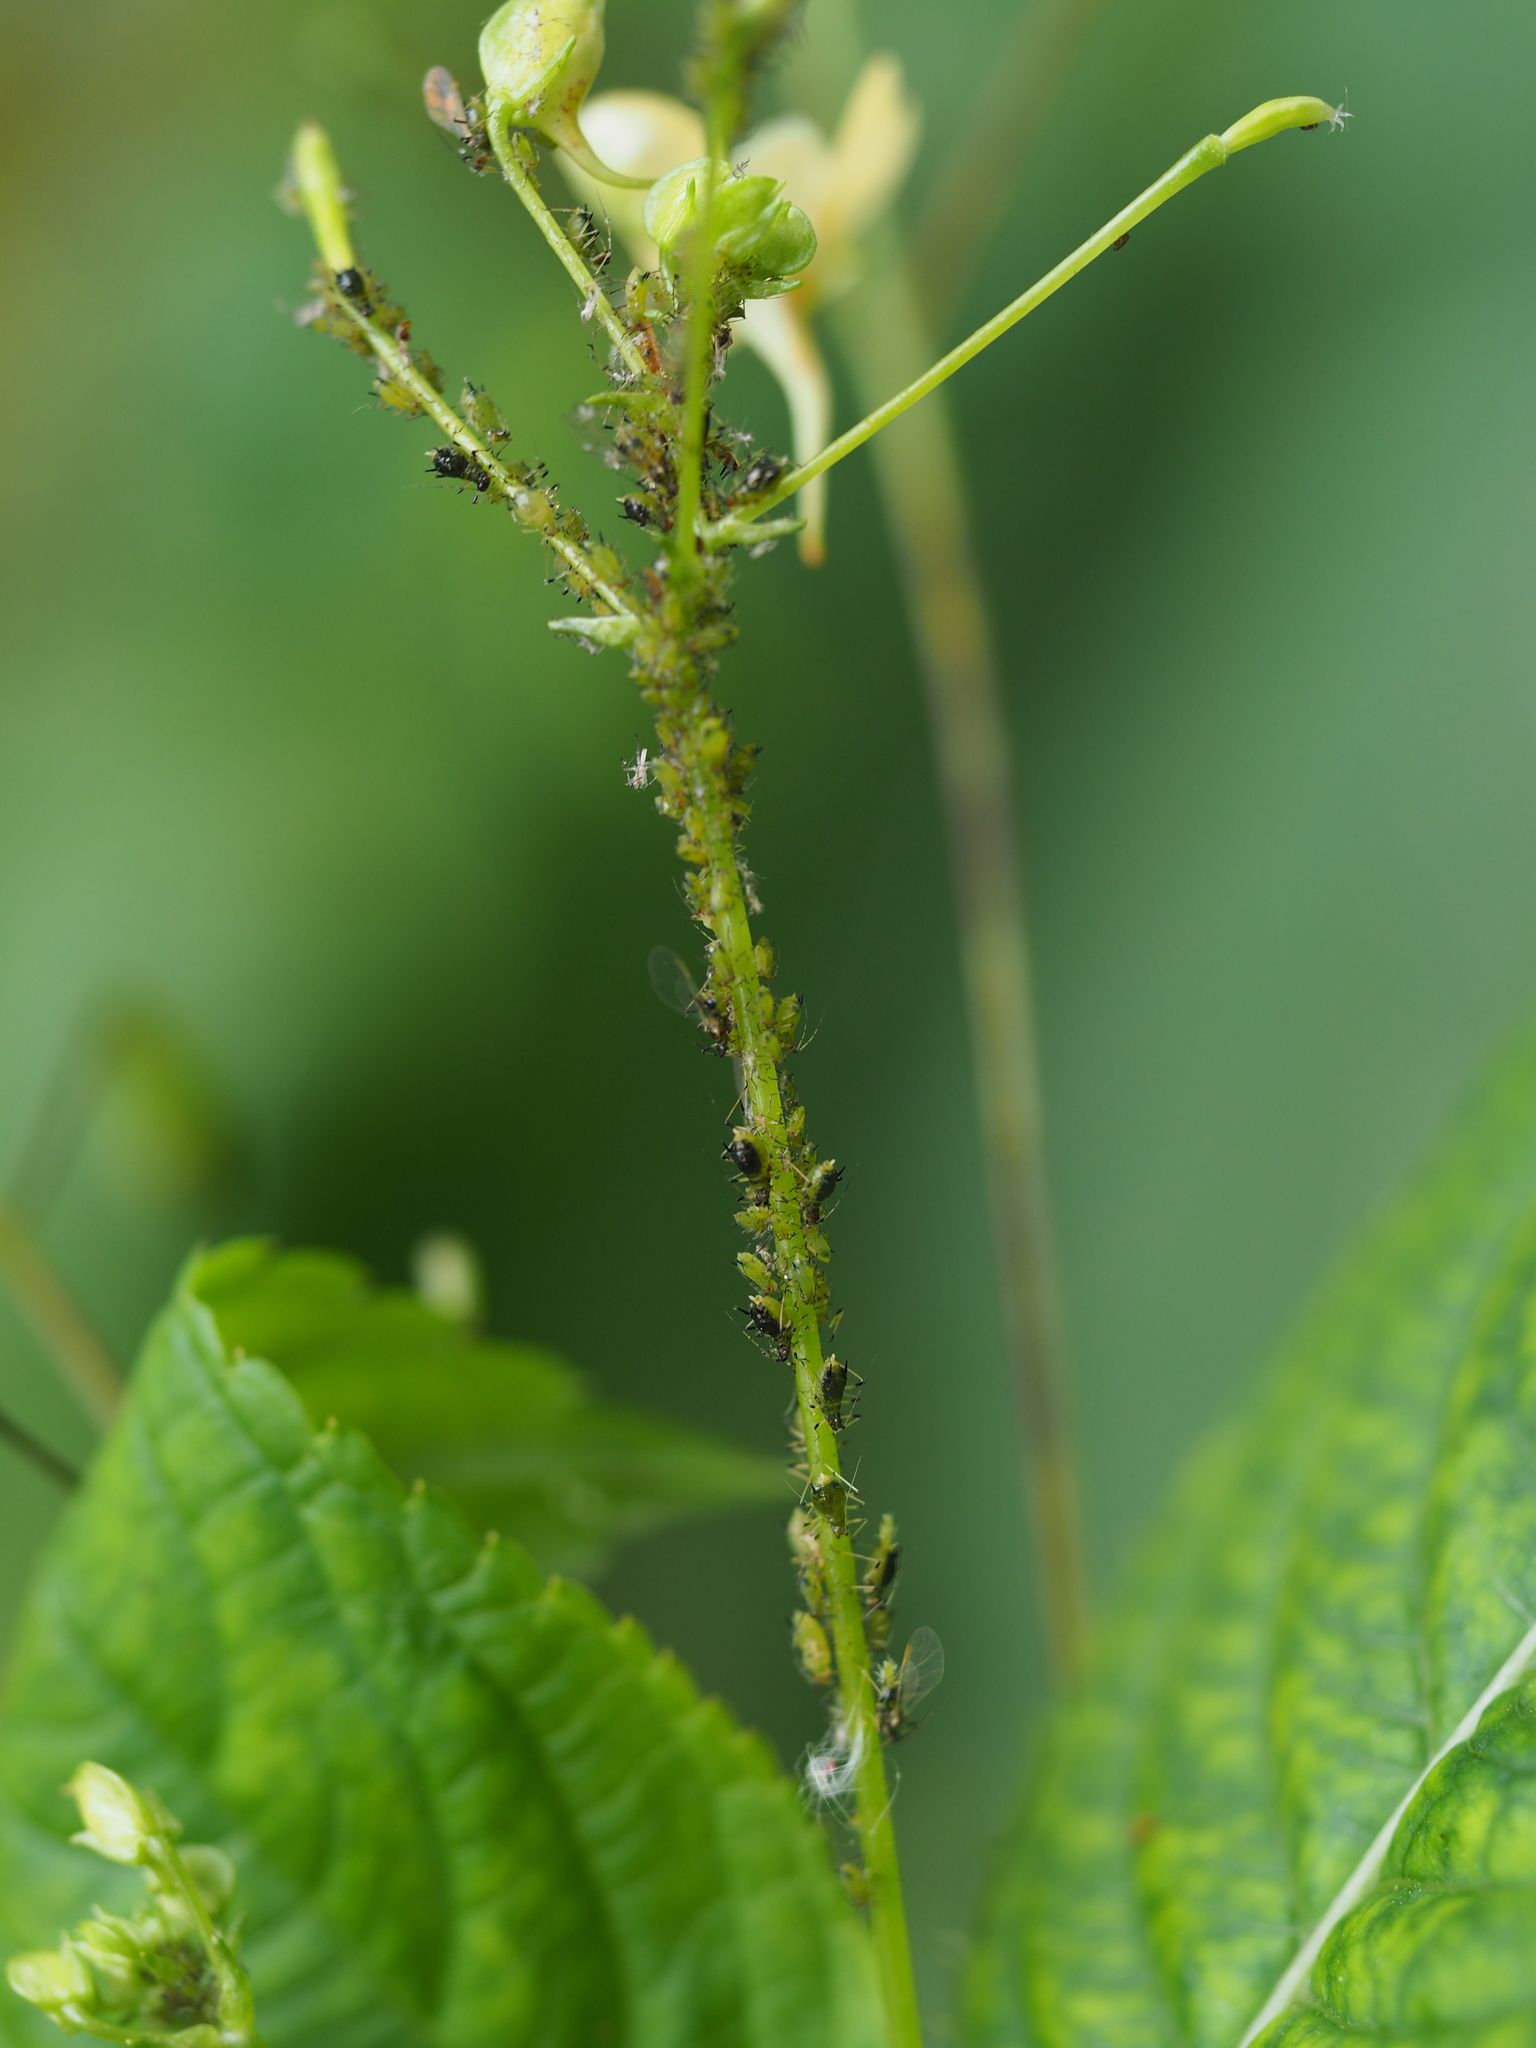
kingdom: Animalia
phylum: Arthropoda
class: Insecta
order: Hemiptera
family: Aphididae
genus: Impatientinum
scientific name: Impatientinum asiaticum
